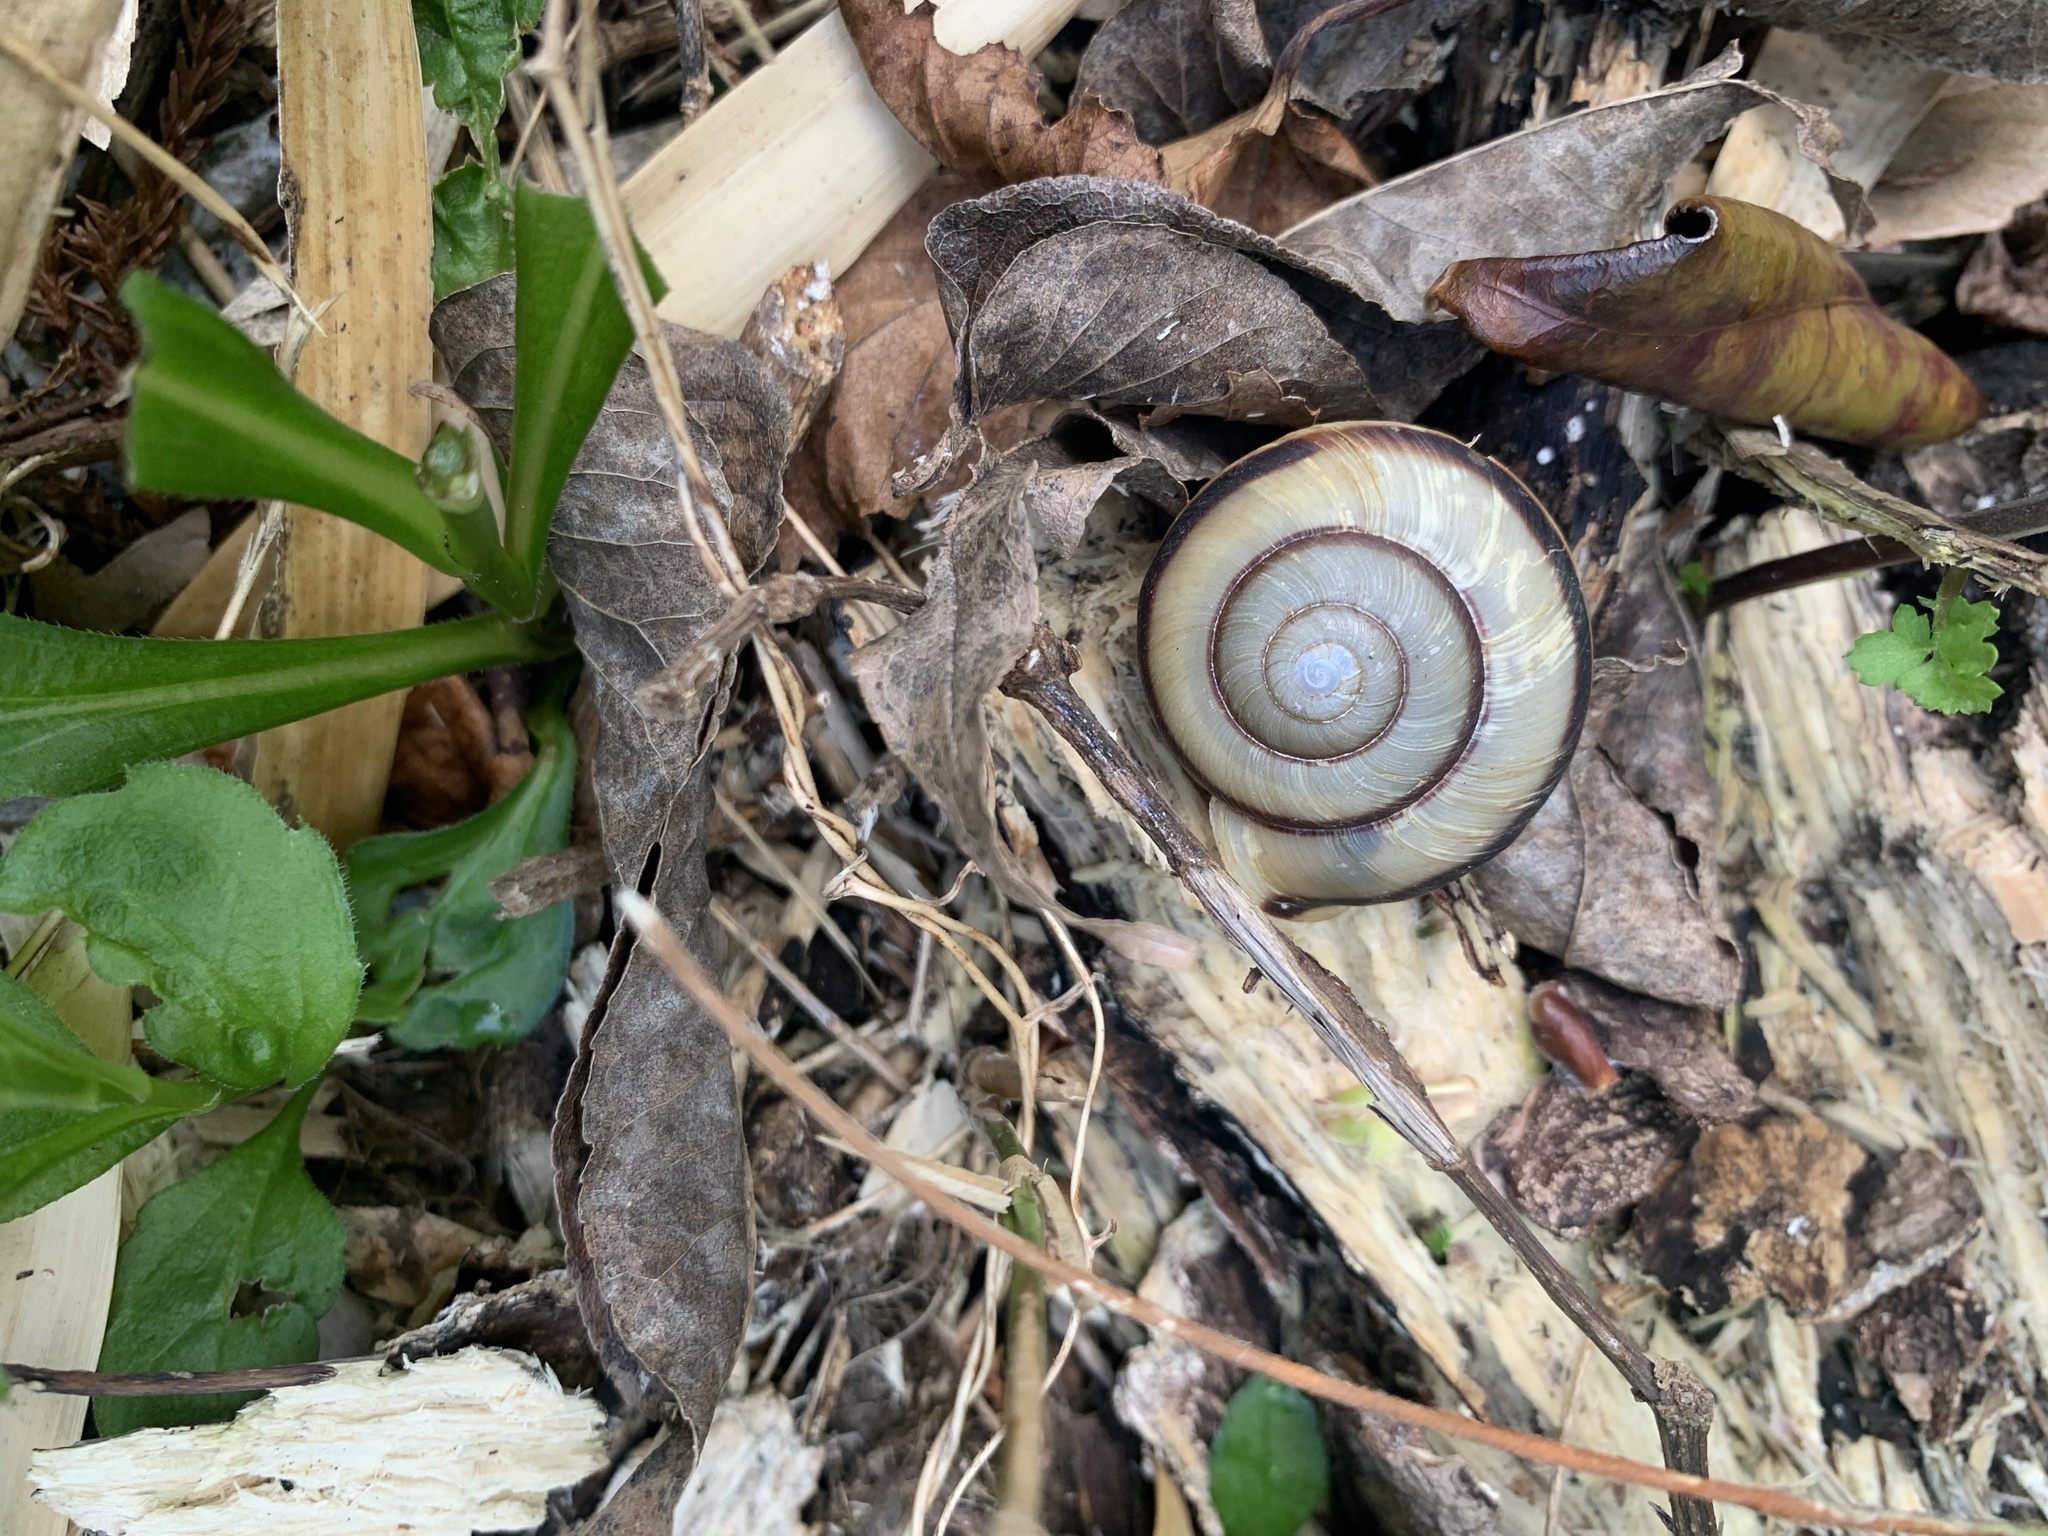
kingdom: Animalia
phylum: Mollusca
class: Gastropoda
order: Stylommatophora
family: Camaenidae
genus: Euhadra
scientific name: Euhadra peliomphala
